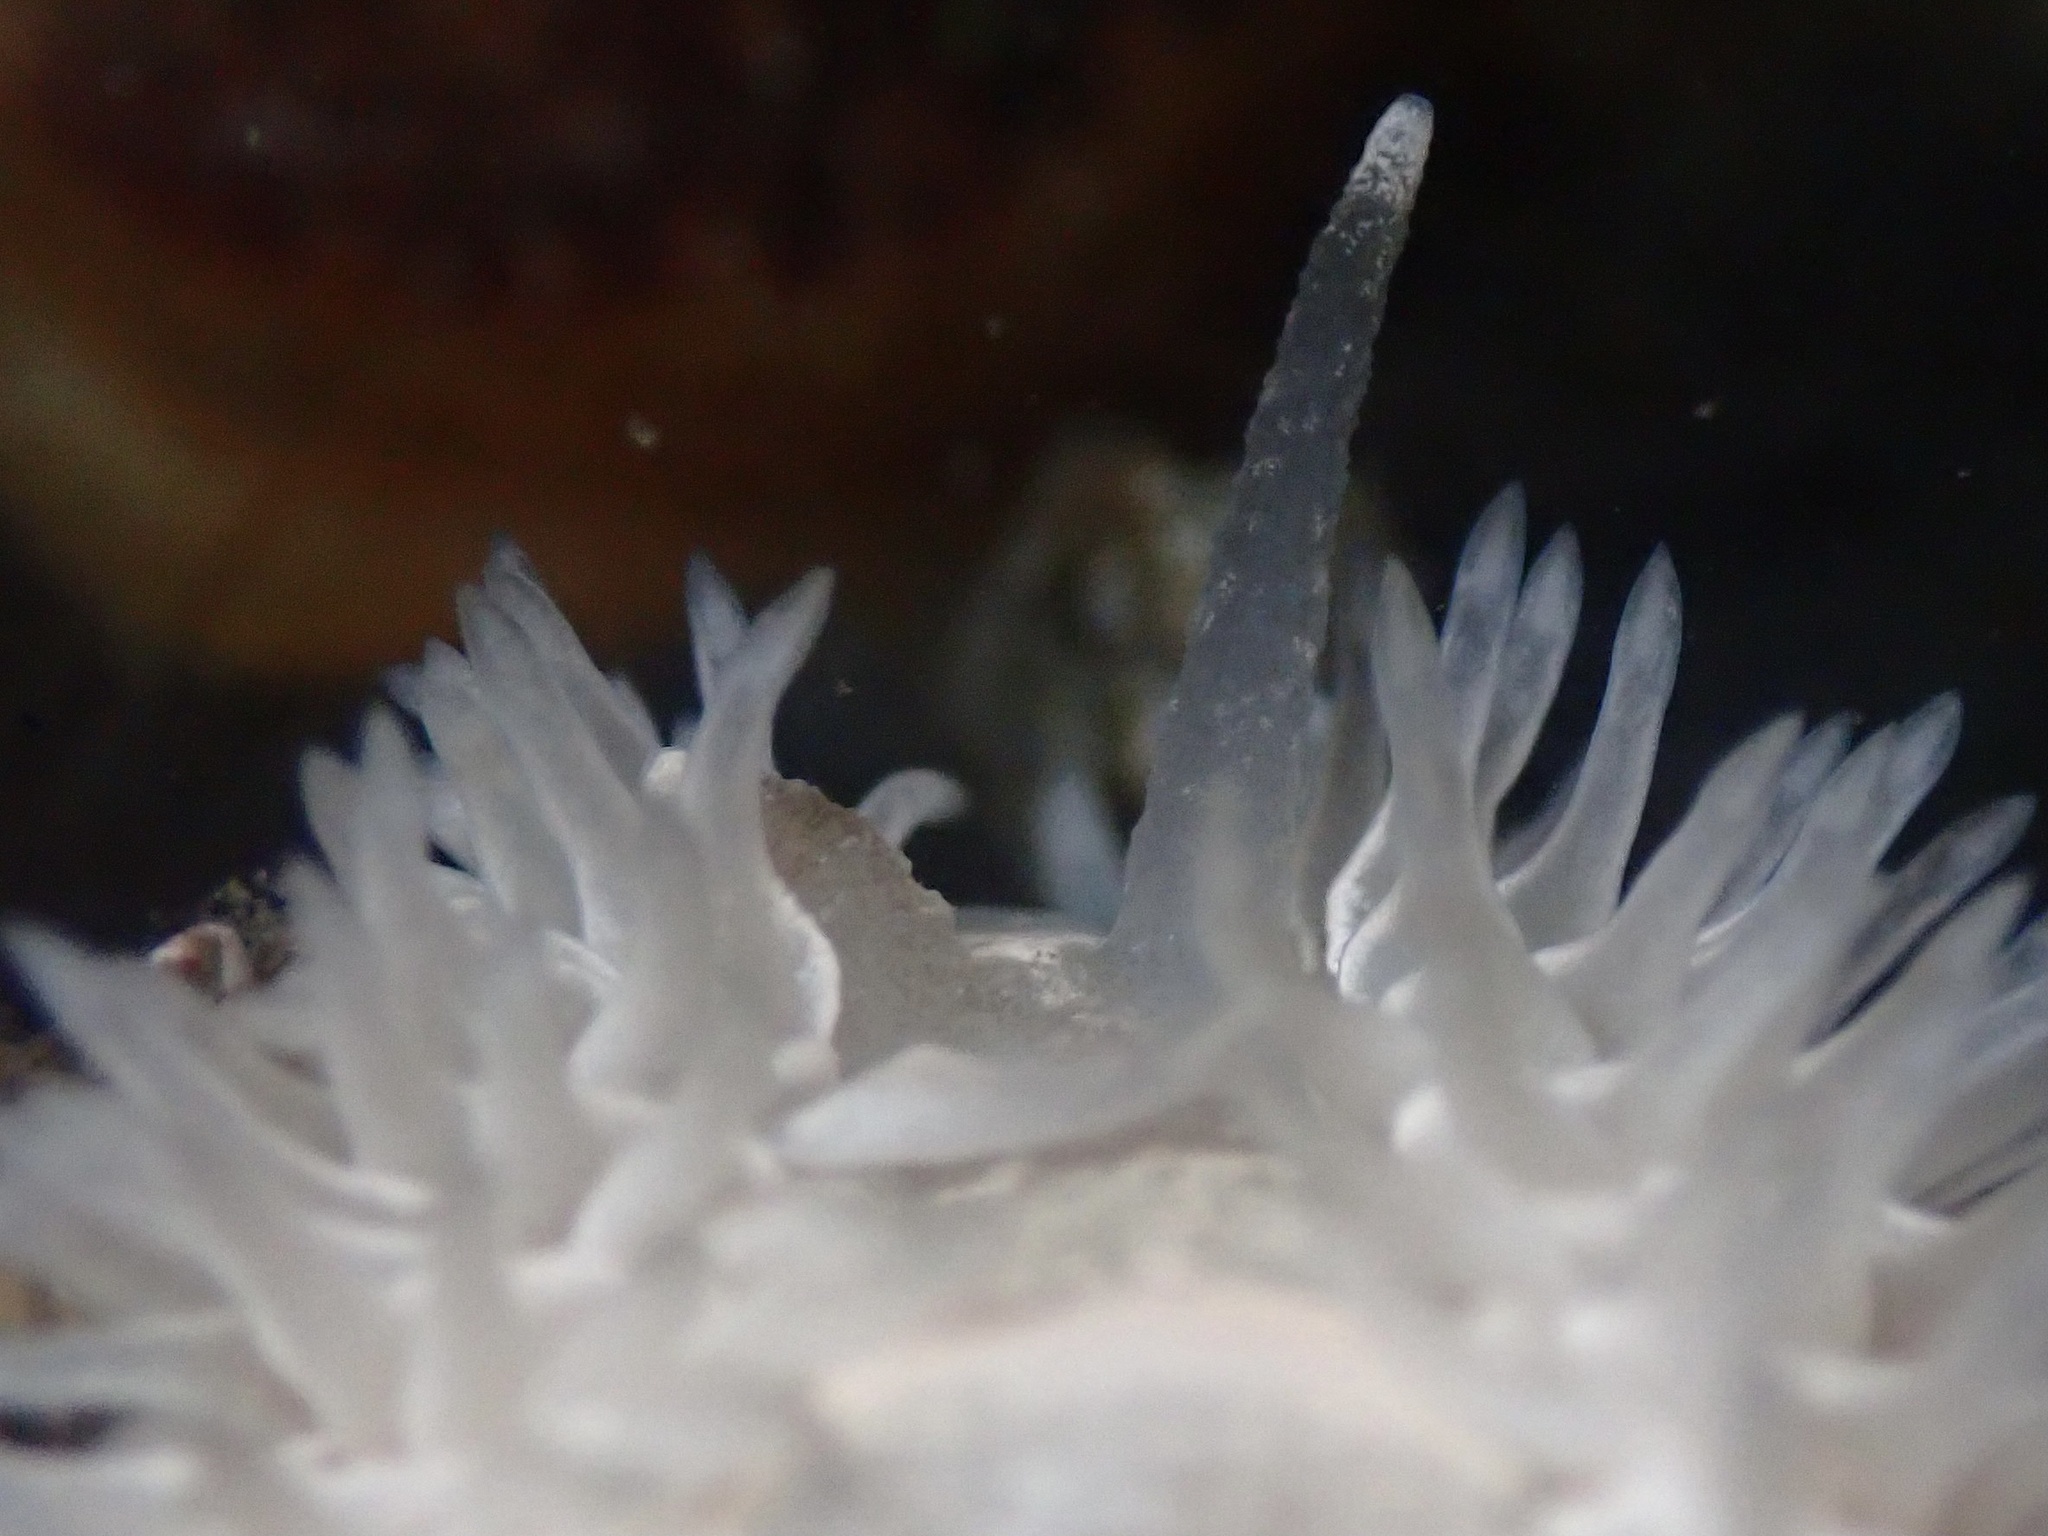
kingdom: Animalia
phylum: Mollusca
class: Gastropoda
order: Nudibranchia
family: Aeolidiidae
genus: Aeolidia
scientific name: Aeolidia loui
